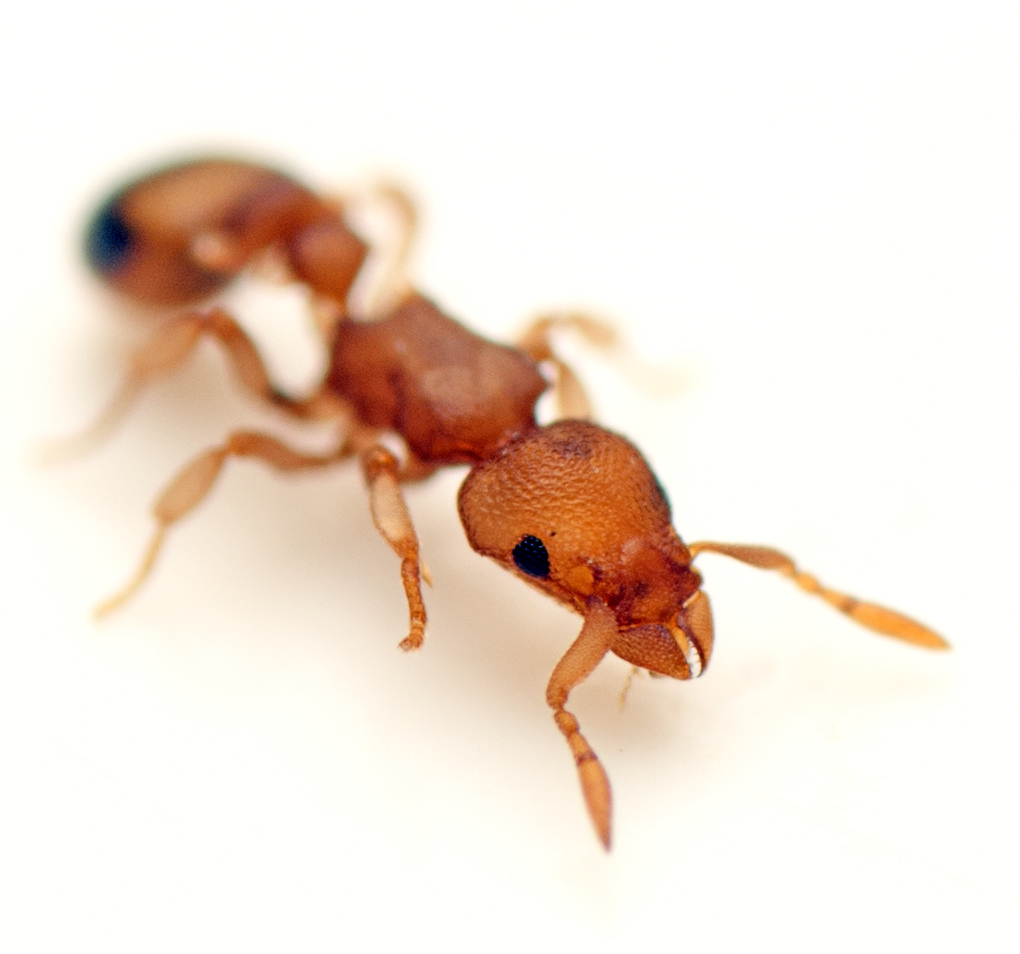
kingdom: Animalia
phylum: Arthropoda
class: Insecta
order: Hymenoptera
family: Formicidae
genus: Colobostruma
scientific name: Colobostruma
